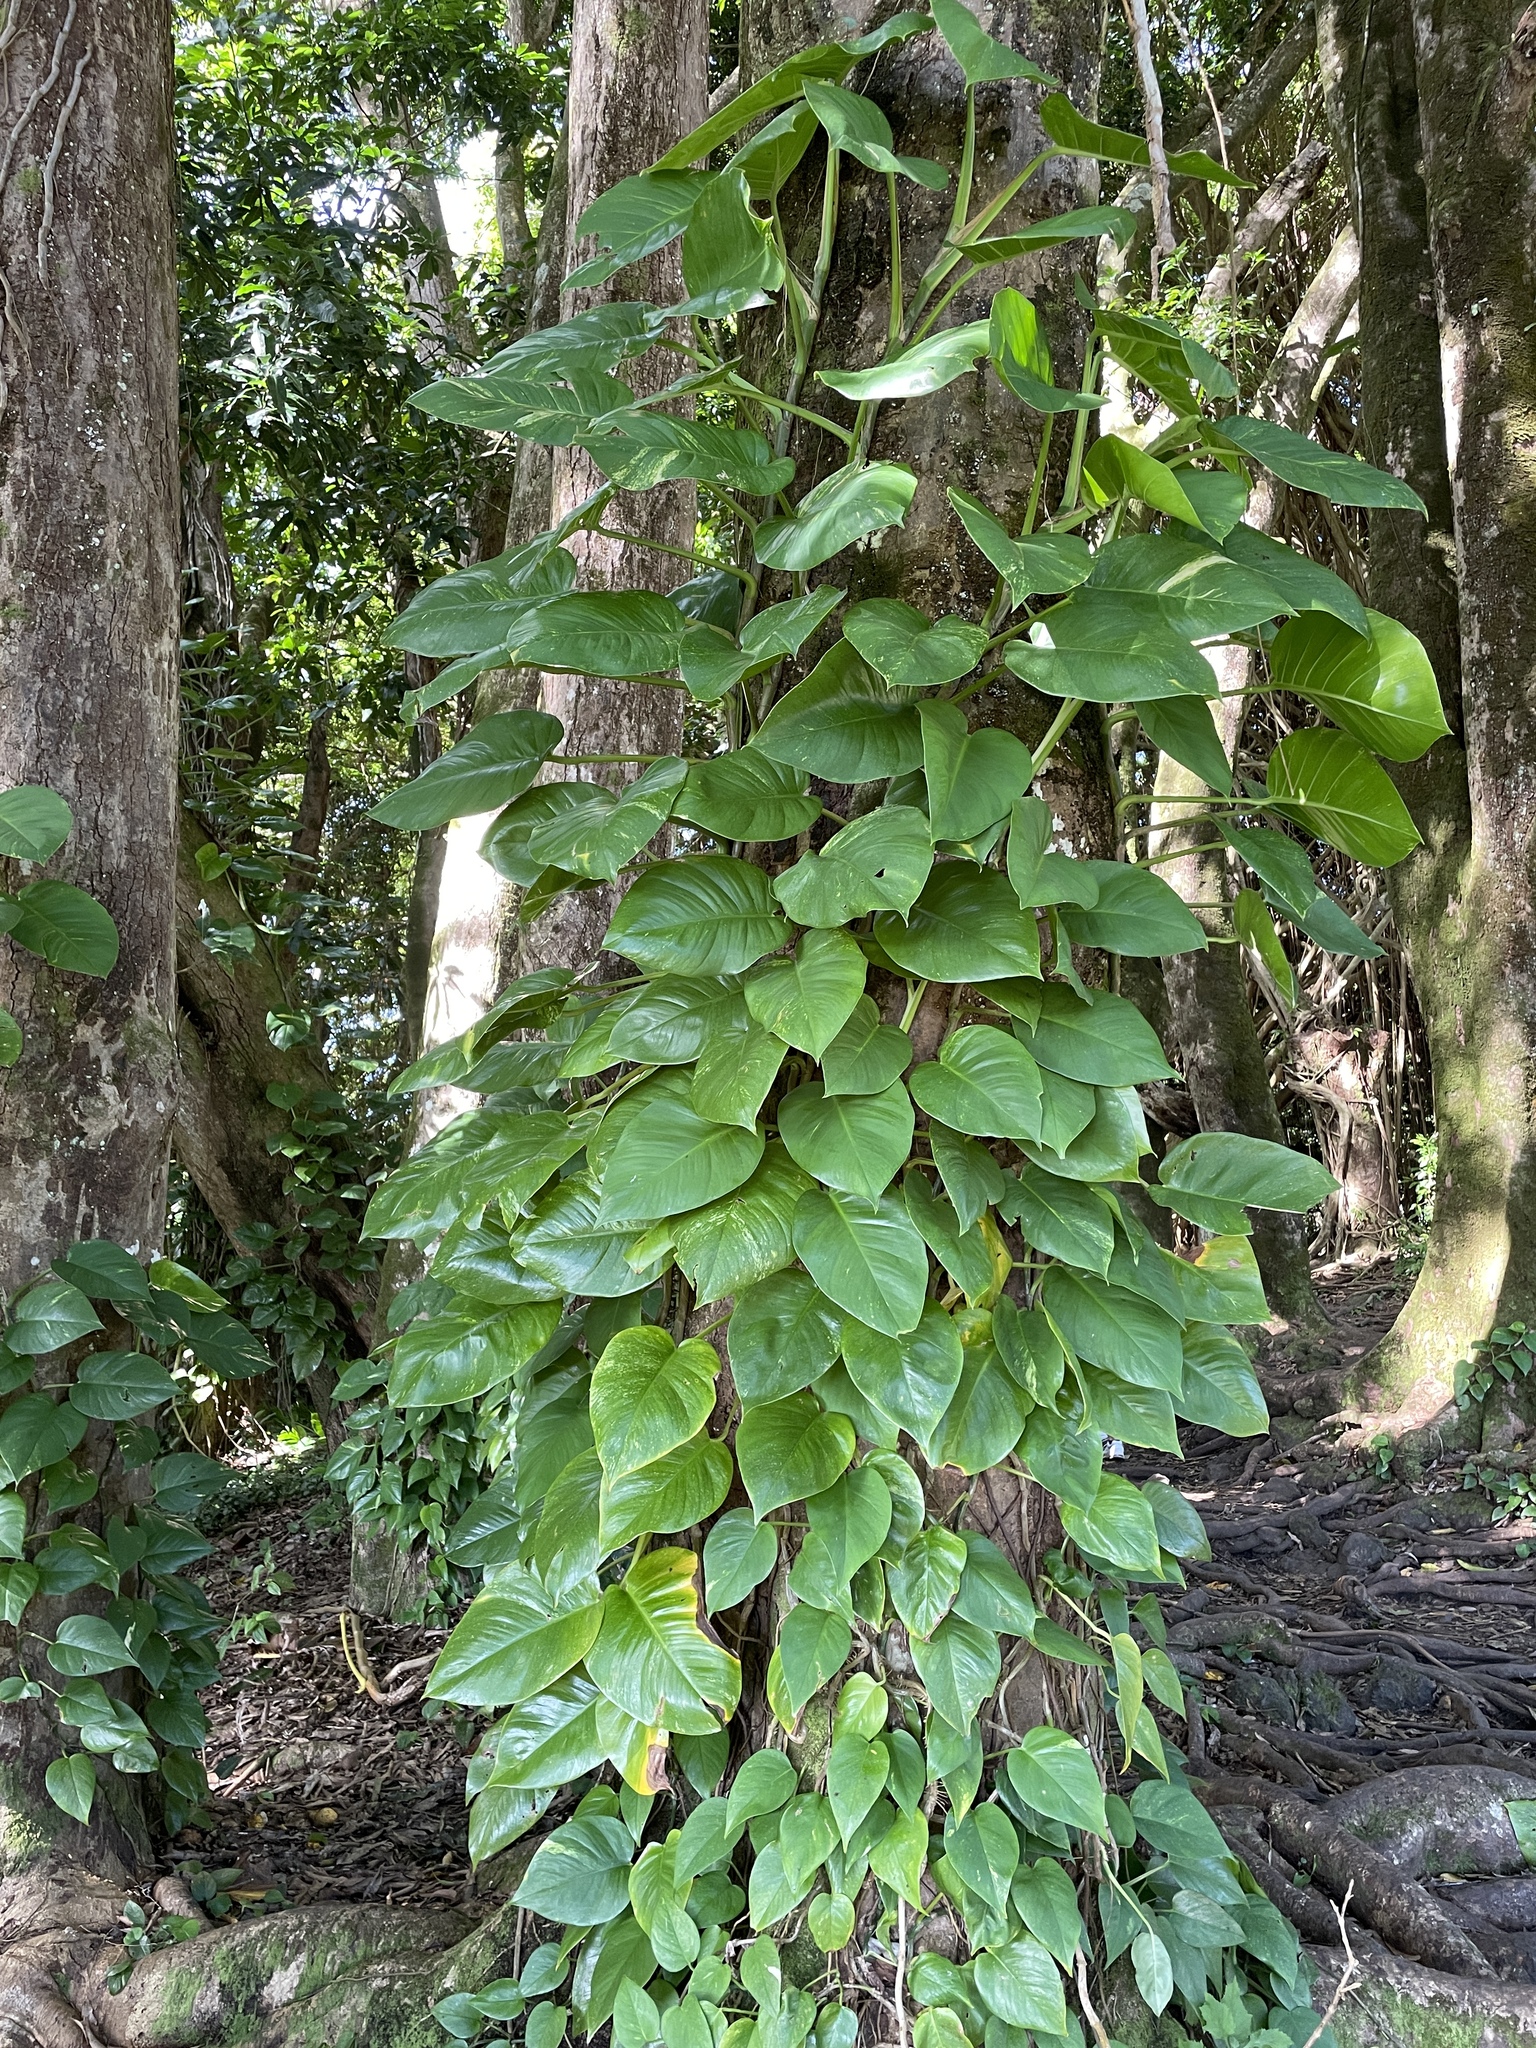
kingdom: Plantae
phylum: Tracheophyta
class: Liliopsida
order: Alismatales
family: Araceae
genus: Epipremnum
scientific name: Epipremnum aureum
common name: Golden hunter's-robe
